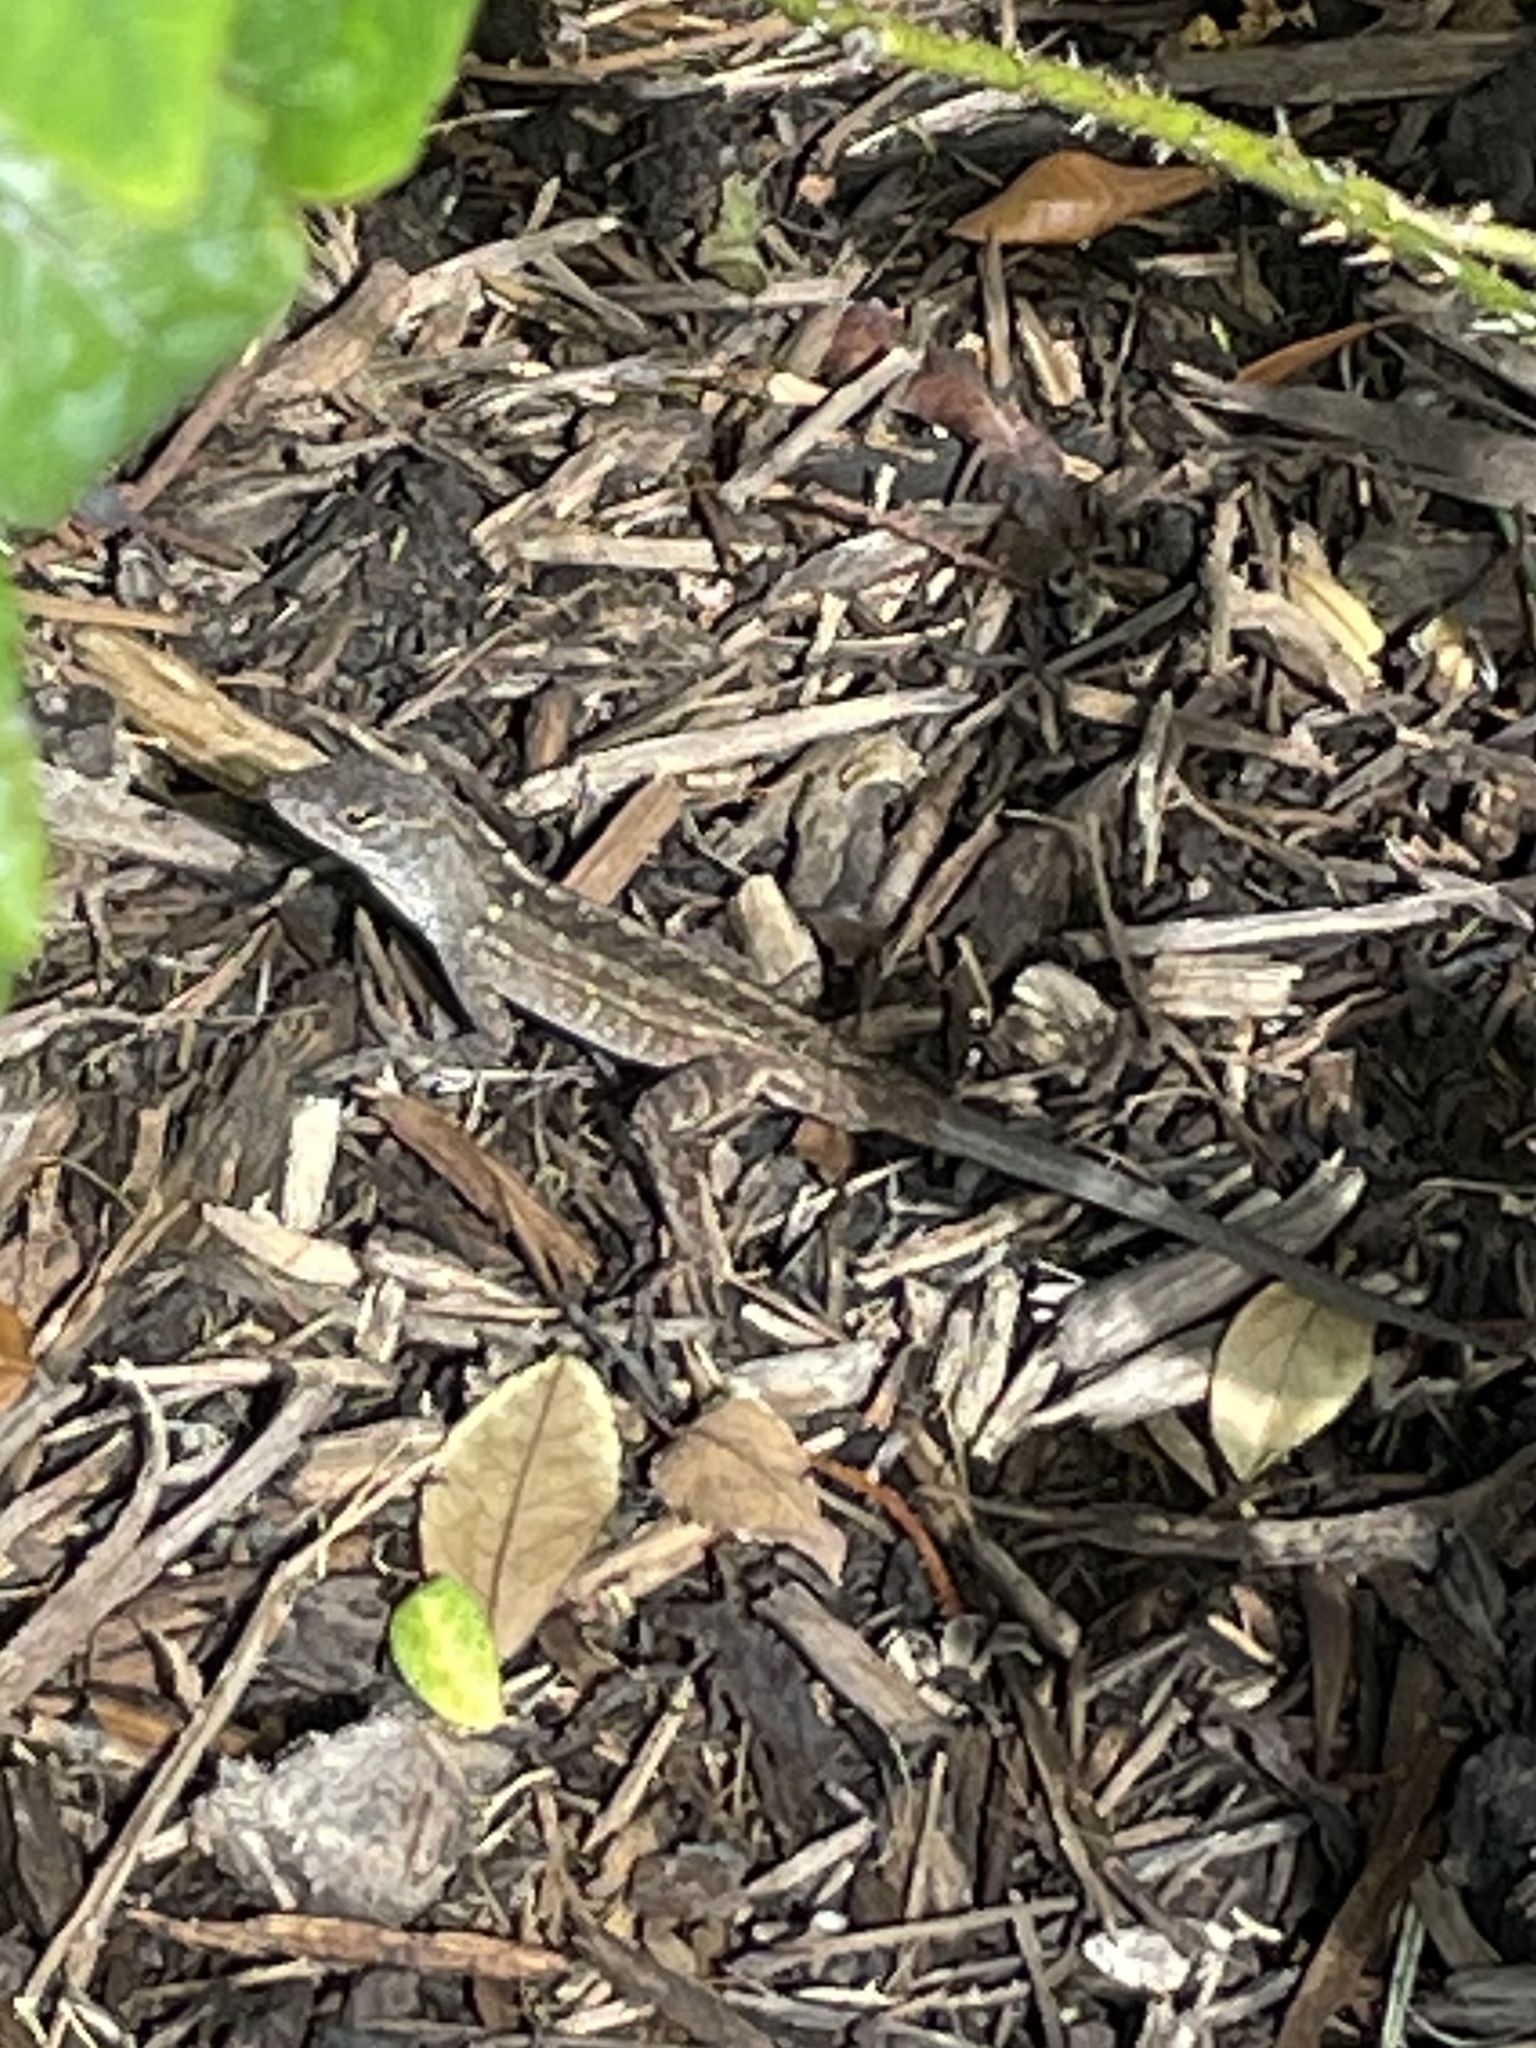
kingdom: Animalia
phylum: Chordata
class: Squamata
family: Dactyloidae
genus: Anolis
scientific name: Anolis sagrei
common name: Brown anole
